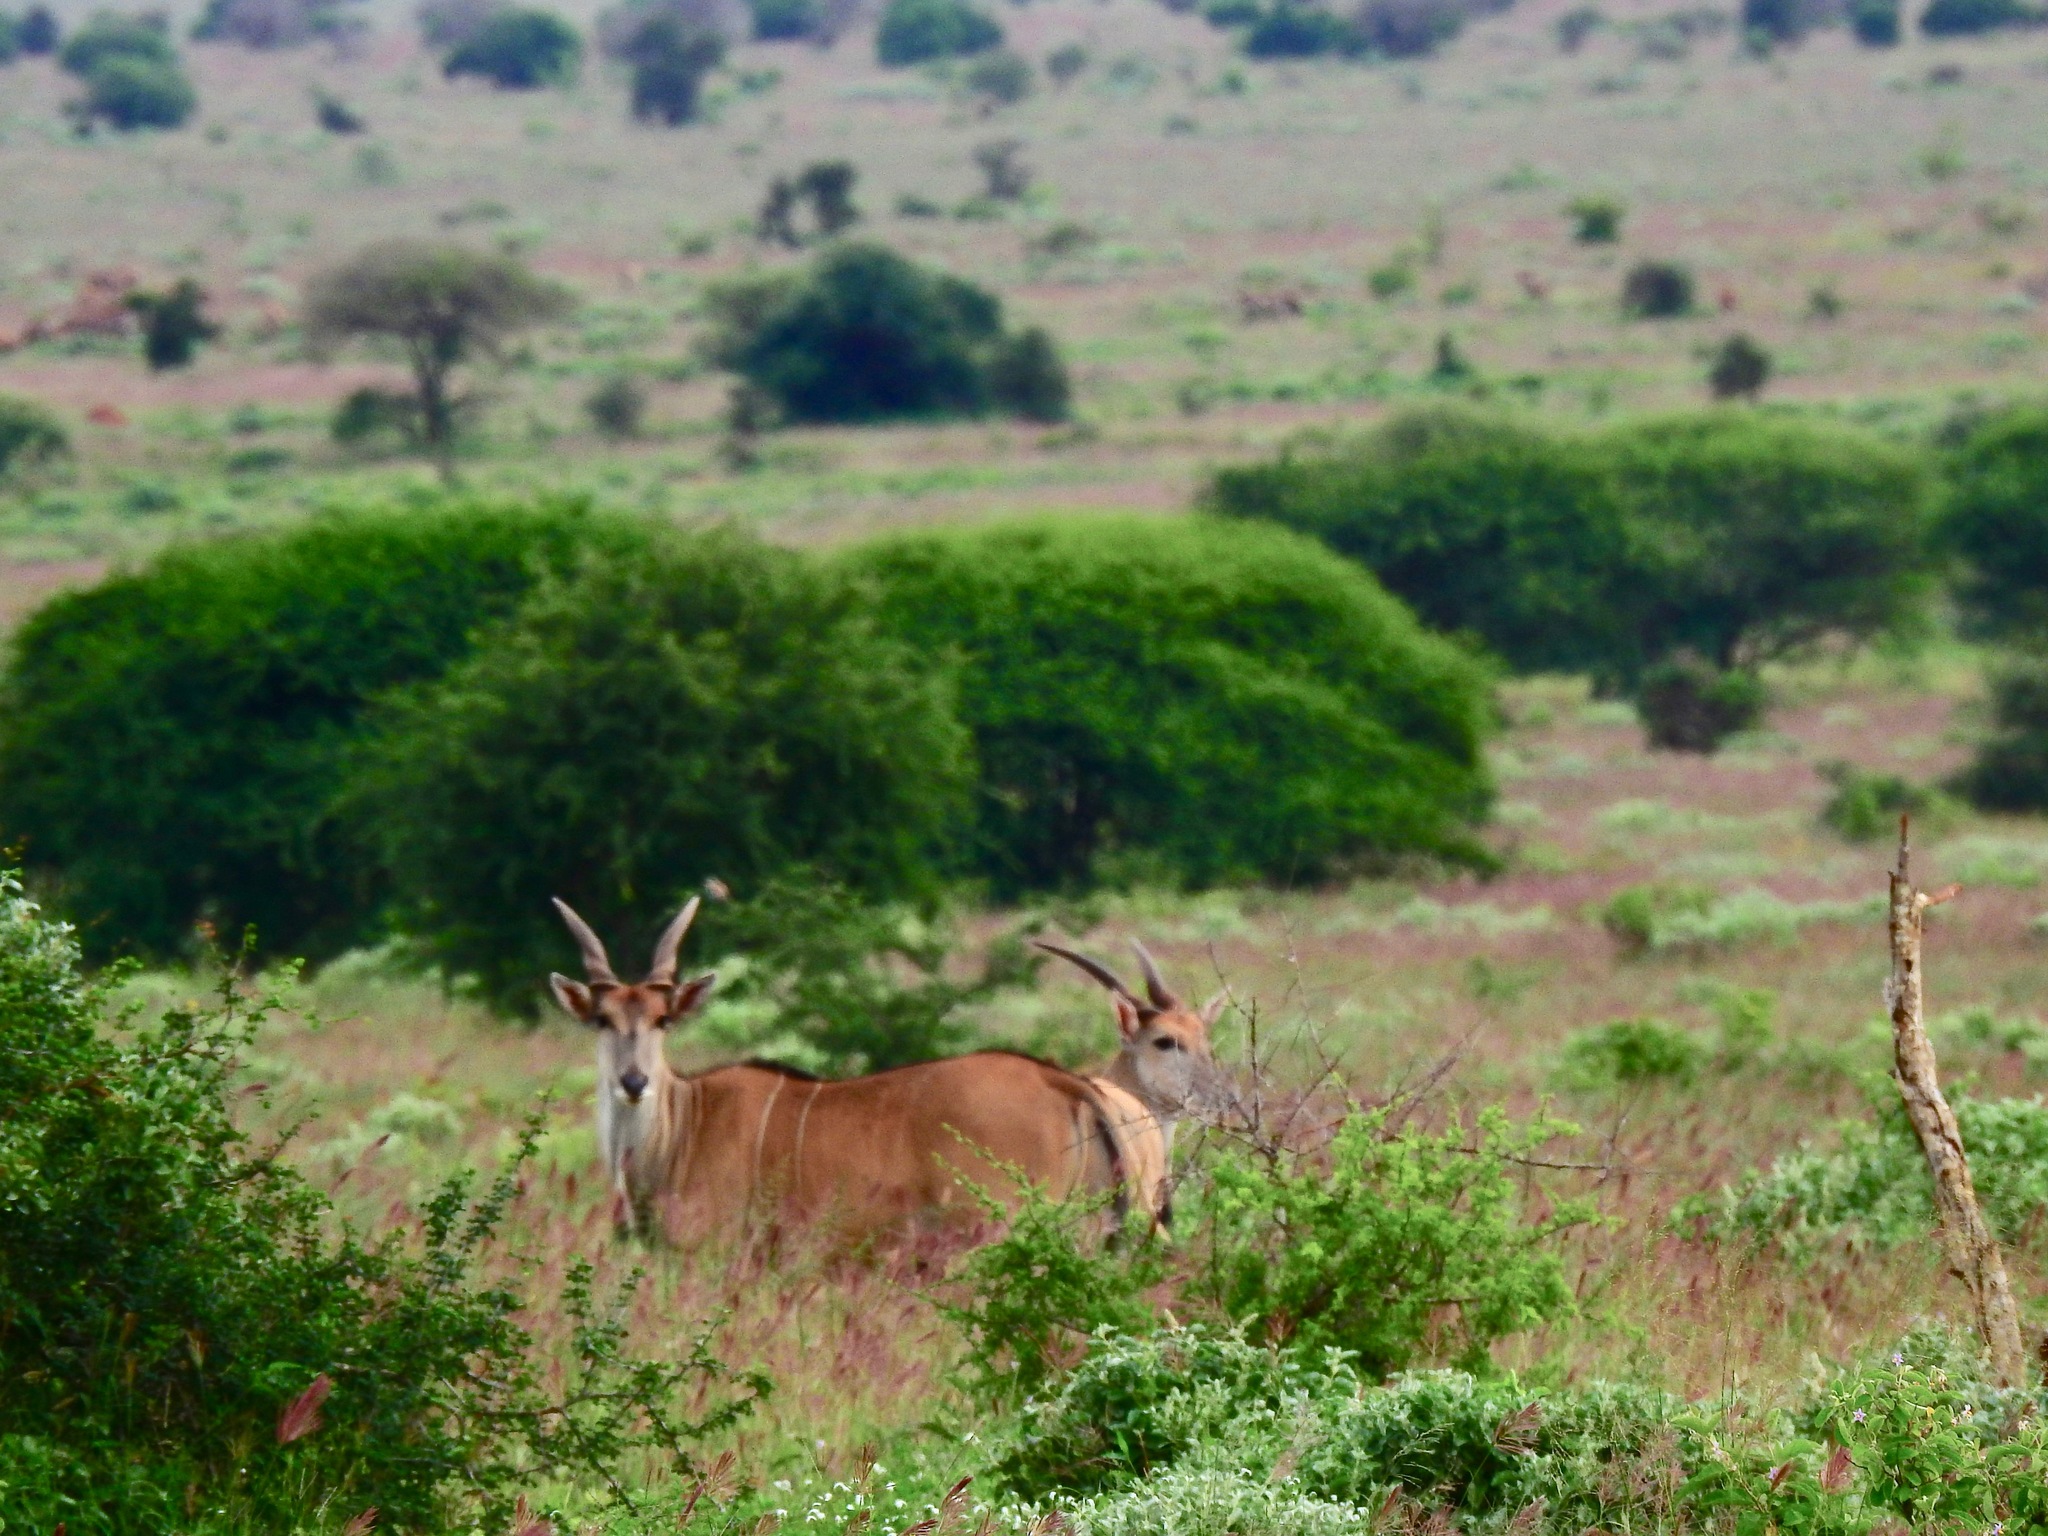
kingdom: Animalia
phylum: Chordata
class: Mammalia
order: Artiodactyla
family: Bovidae
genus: Taurotragus
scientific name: Taurotragus oryx
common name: Common eland
